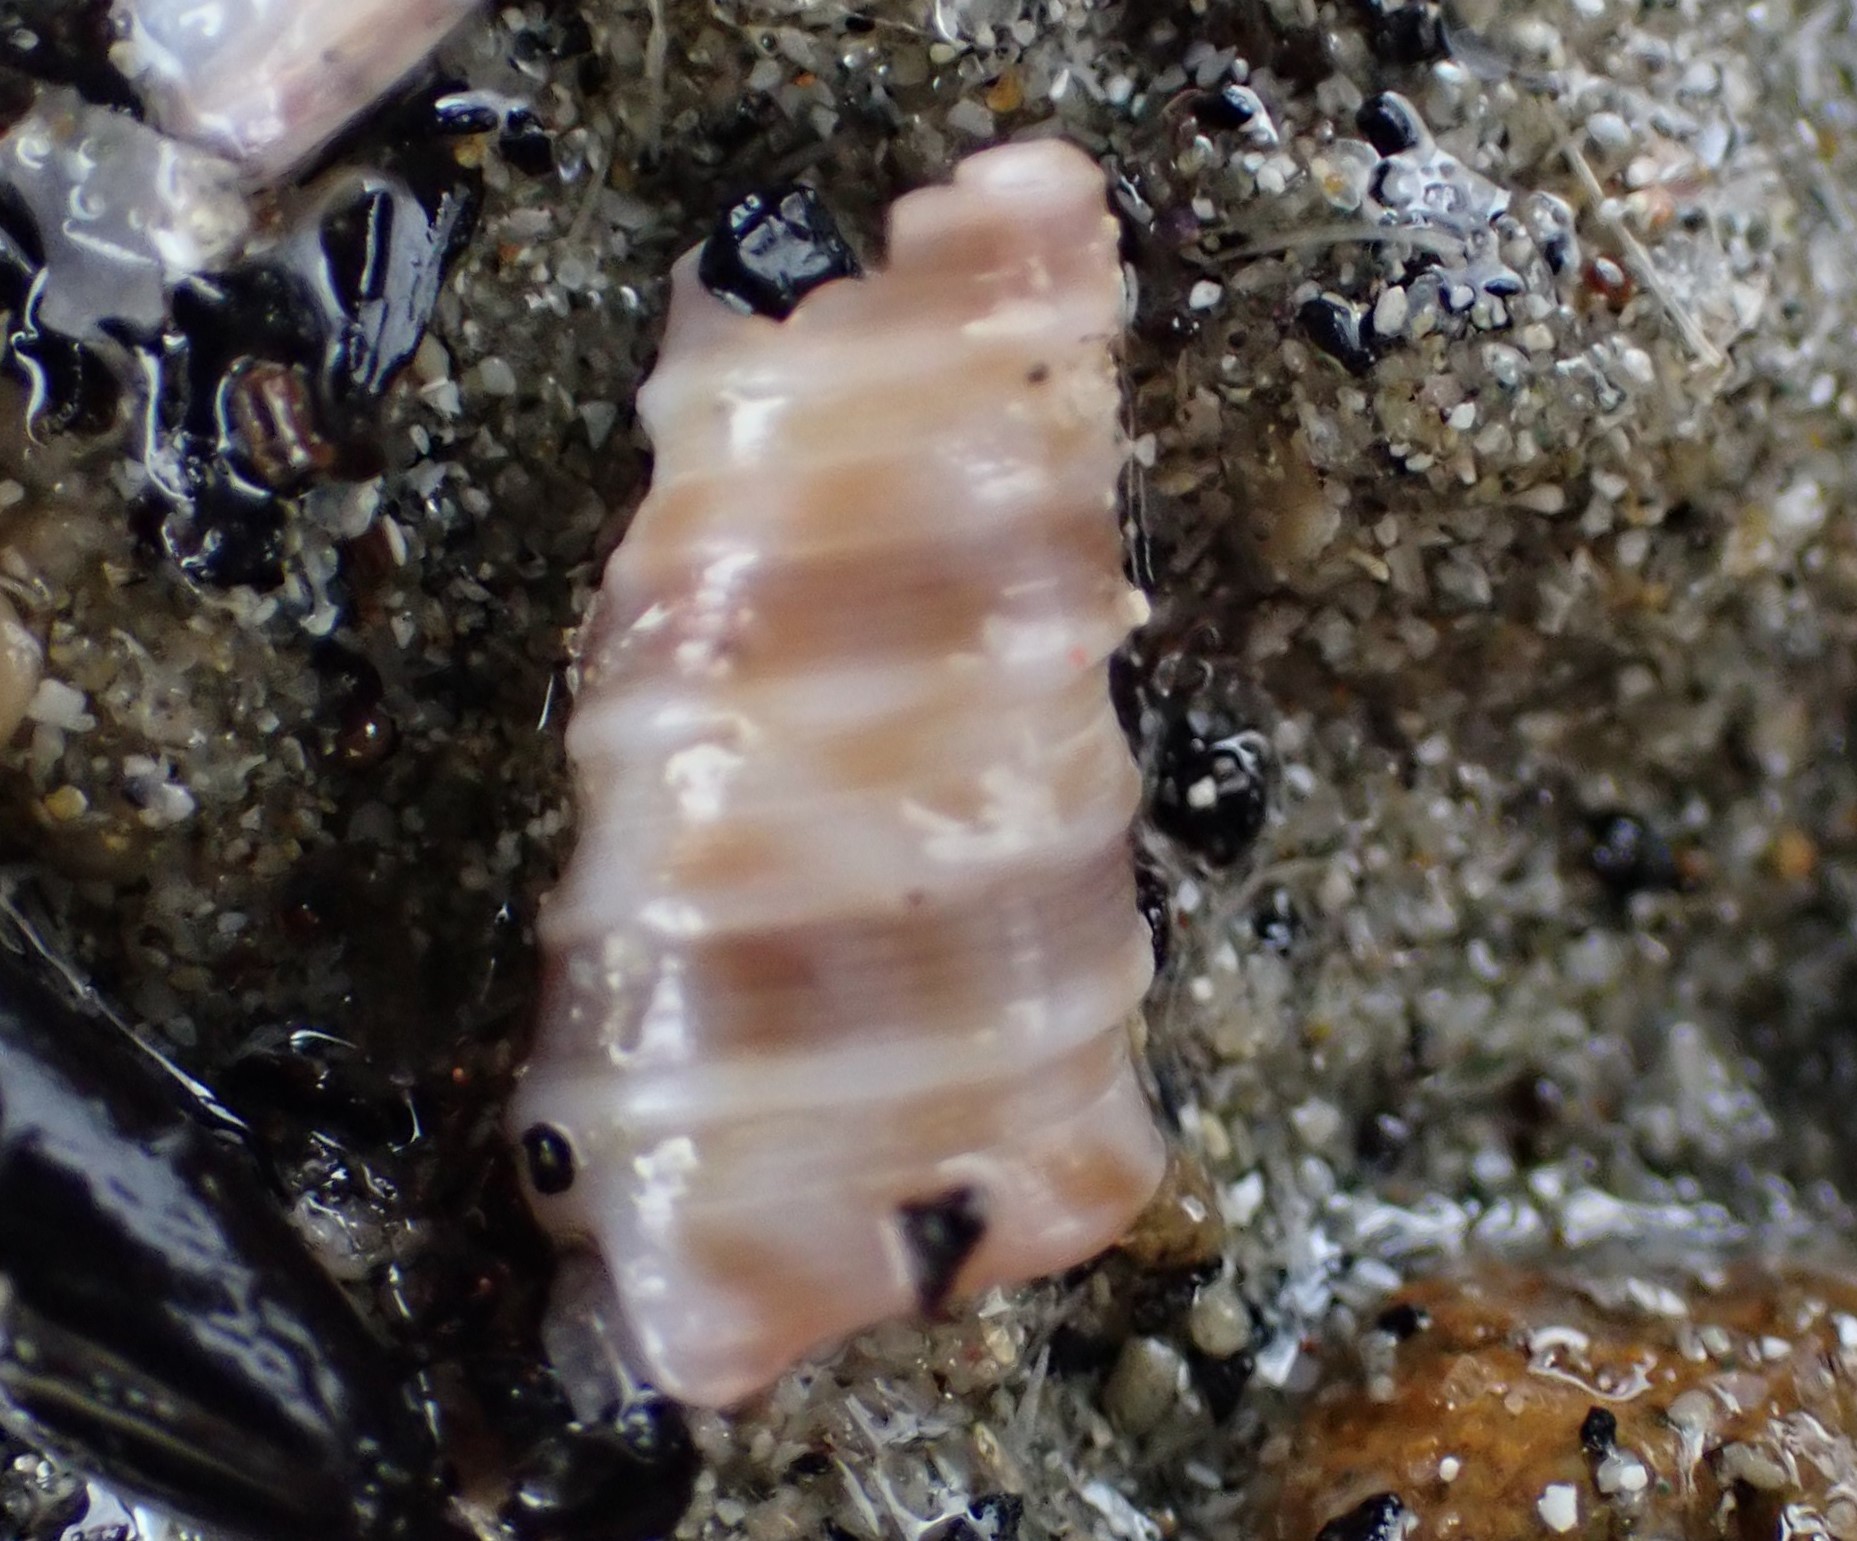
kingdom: Animalia
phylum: Mollusca
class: Gastropoda
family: Turritellidae
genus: Stiracolpus
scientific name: Stiracolpus pagoda
